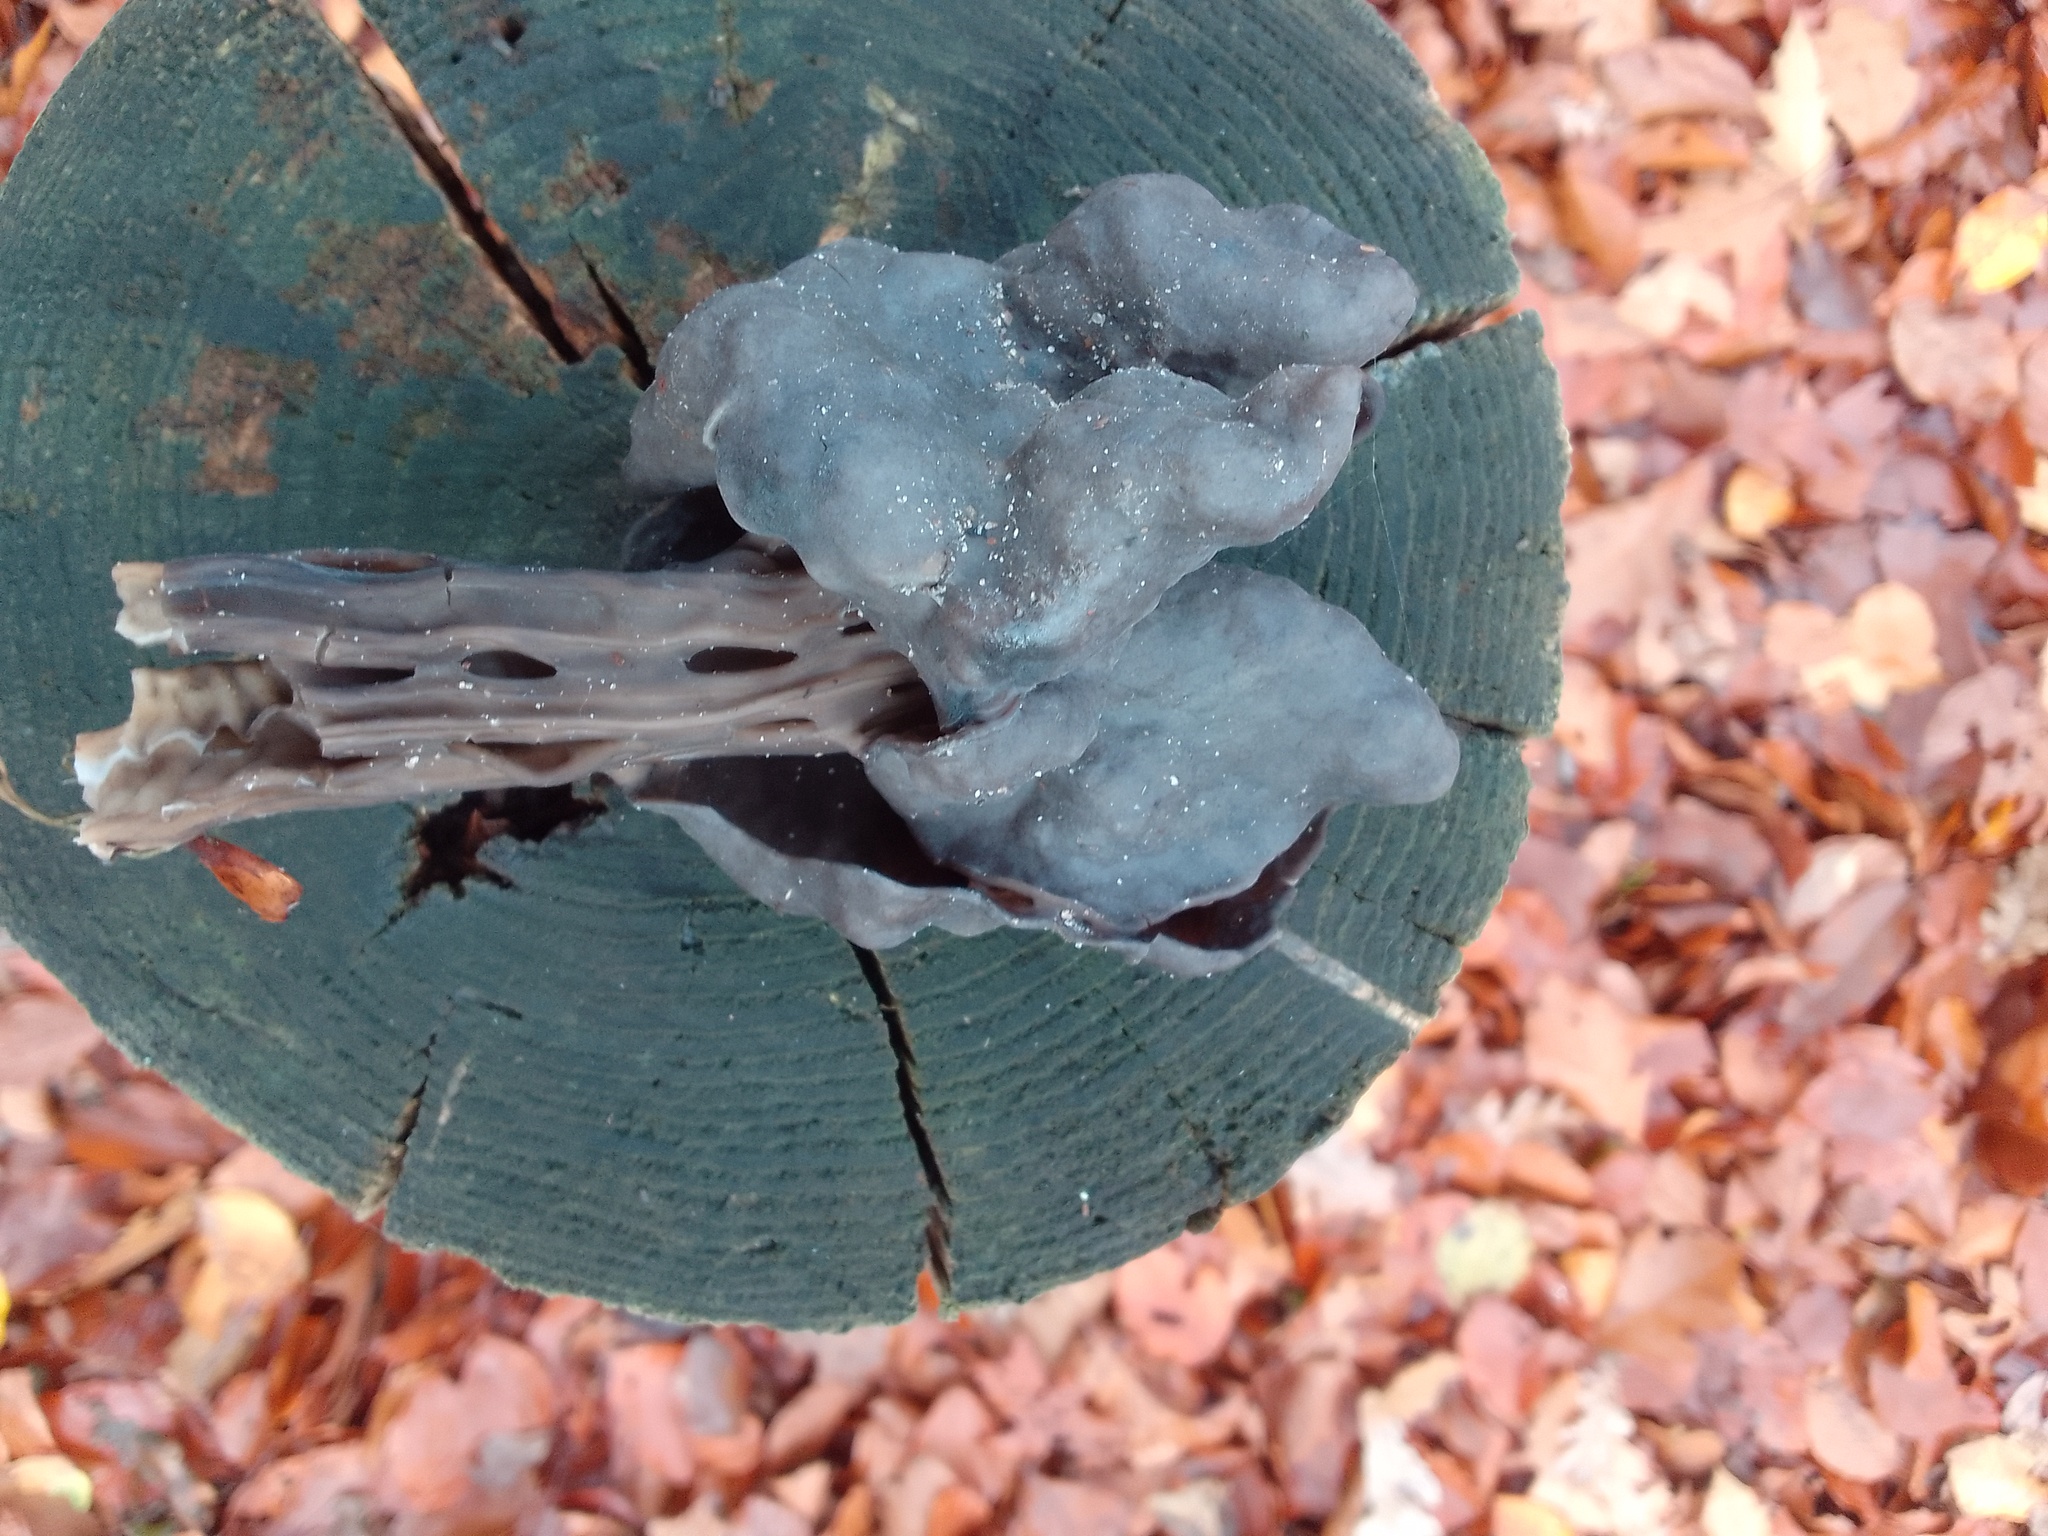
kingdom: Fungi
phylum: Ascomycota
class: Pezizomycetes
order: Pezizales
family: Helvellaceae
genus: Helvella
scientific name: Helvella lacunosa
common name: Elfin saddle
